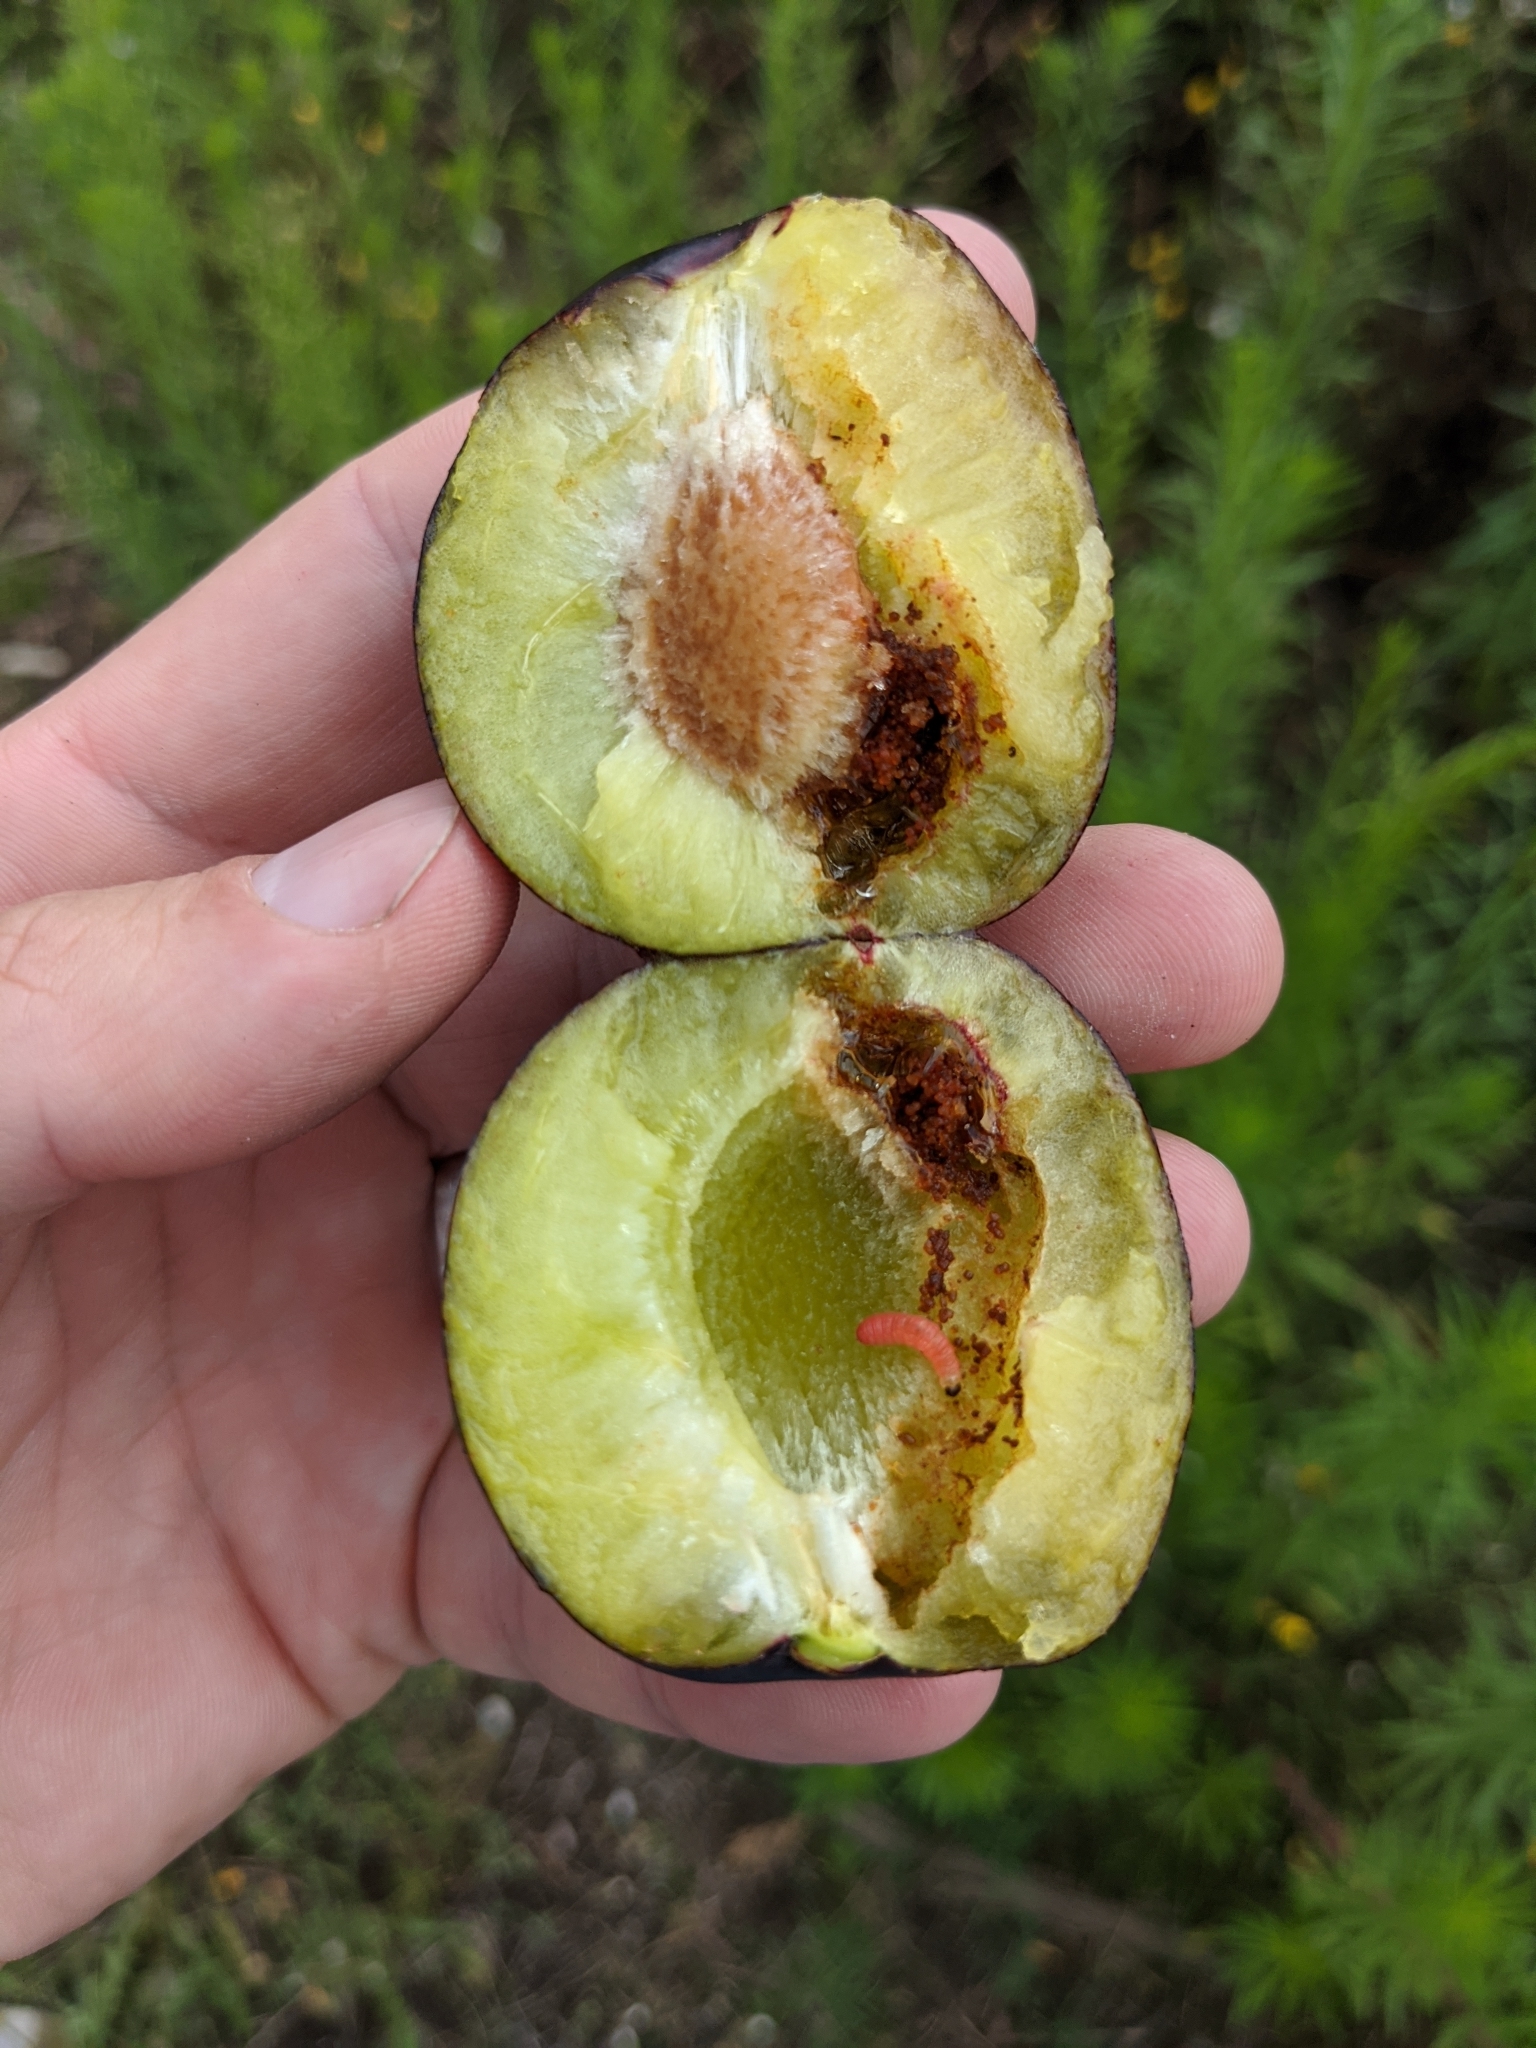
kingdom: Animalia
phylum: Arthropoda
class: Insecta
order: Lepidoptera
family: Noctuidae
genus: Aspila
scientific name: Aspila
